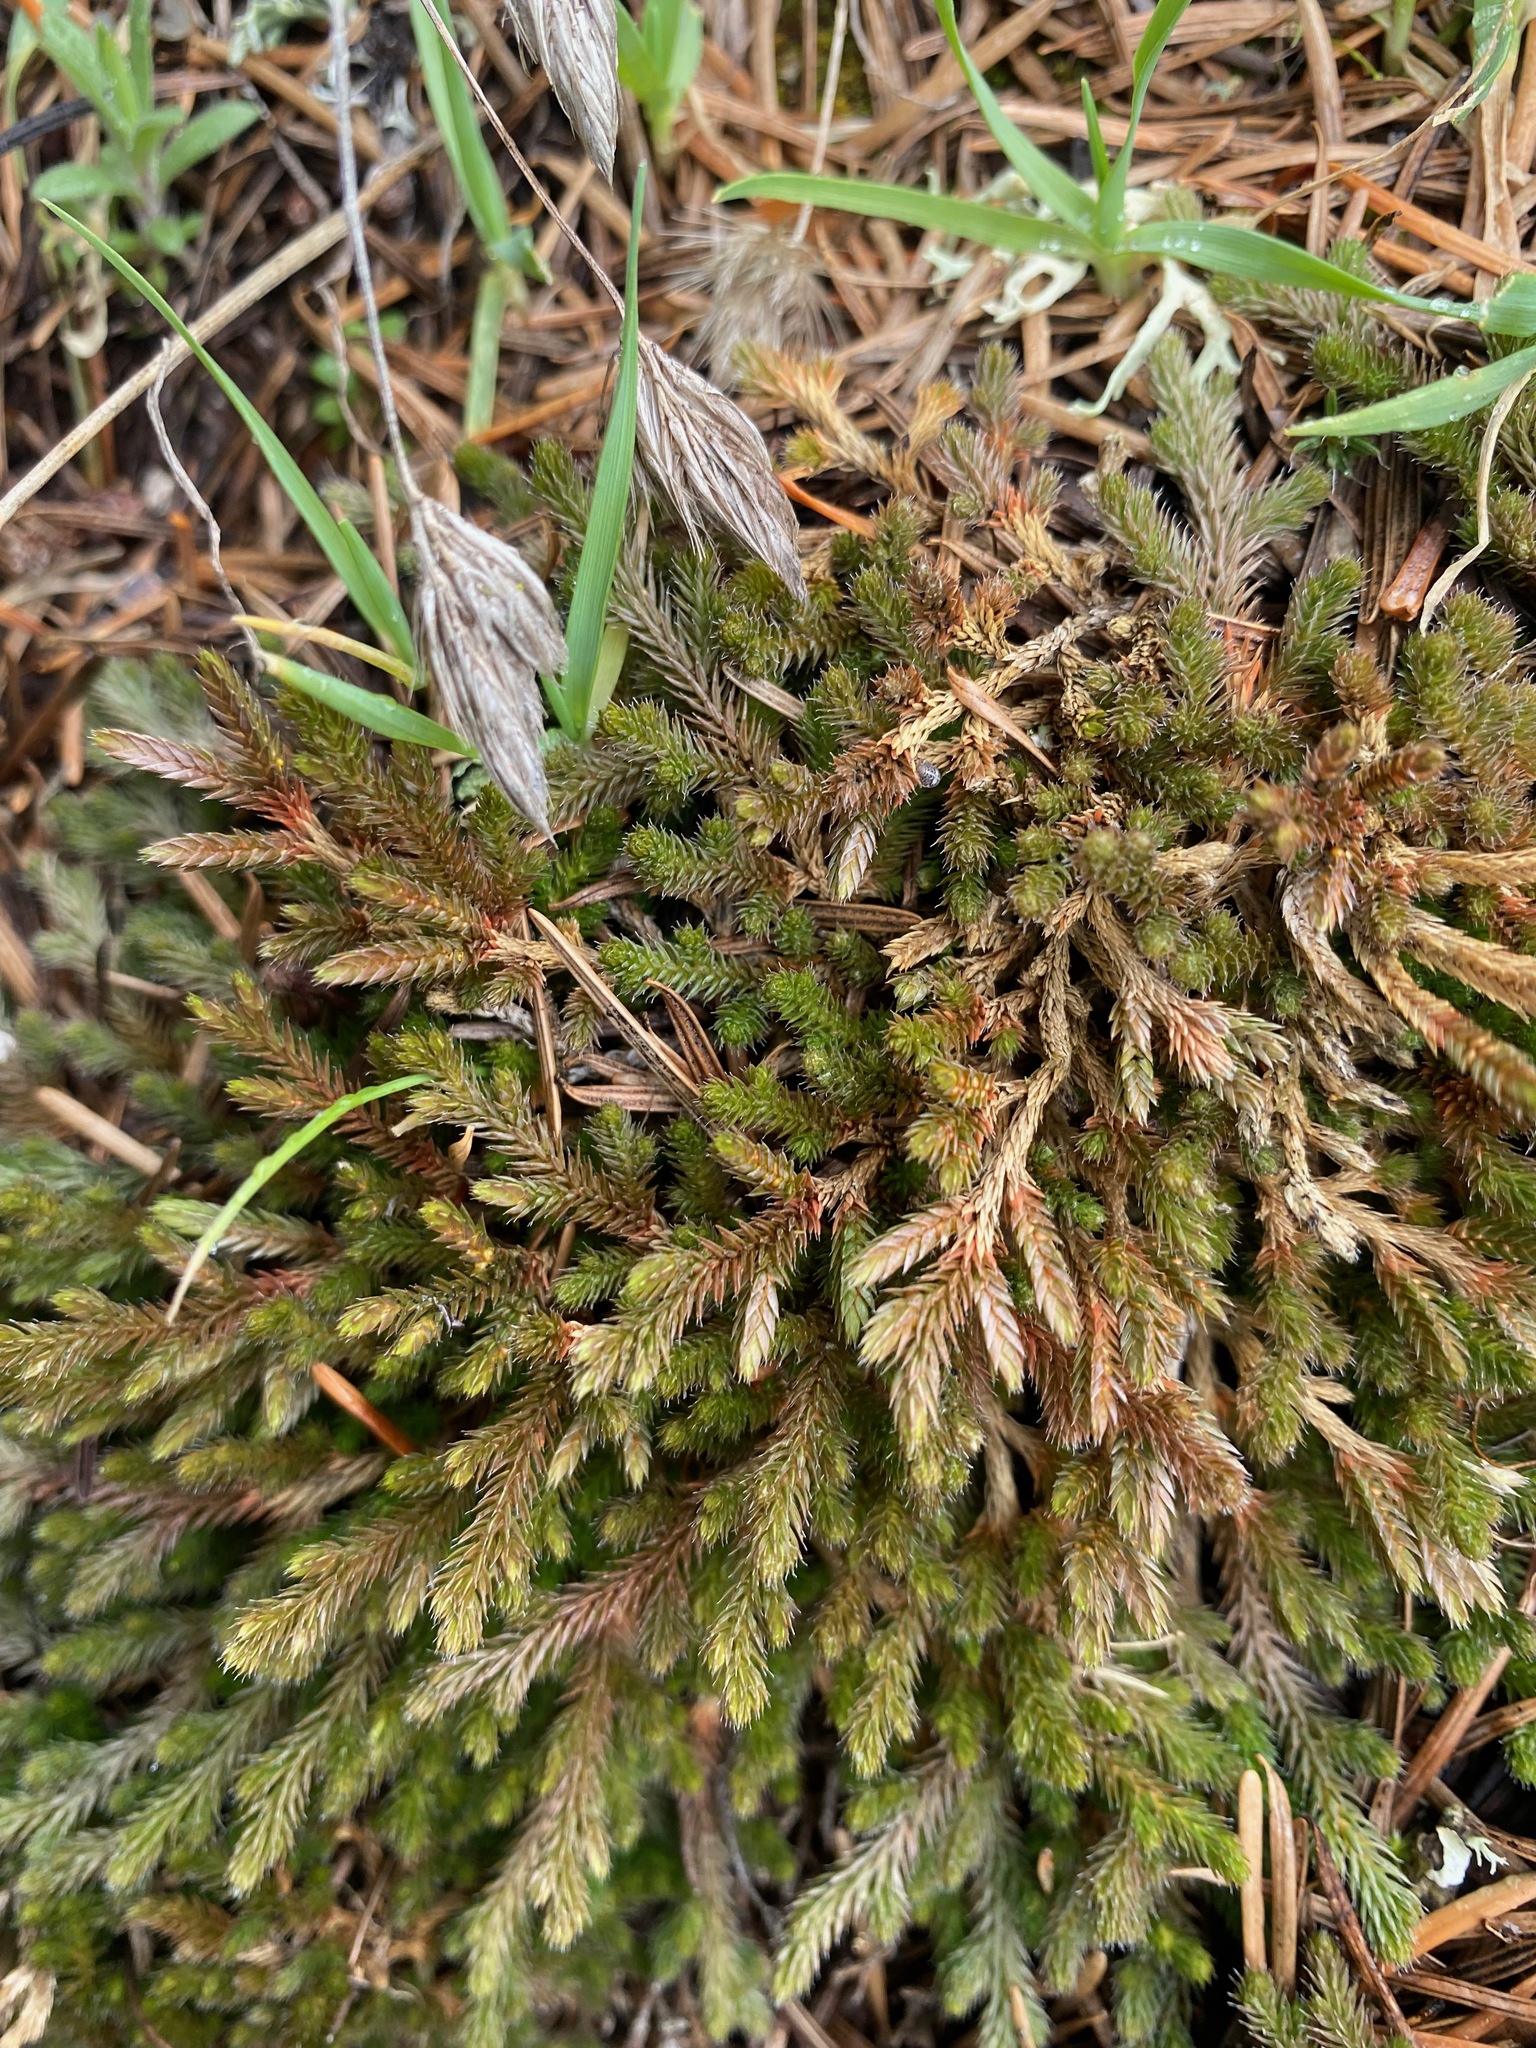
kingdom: Plantae
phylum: Tracheophyta
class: Lycopodiopsida
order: Selaginellales
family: Selaginellaceae
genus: Selaginella
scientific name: Selaginella wallacei
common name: Wallace's selaginella
